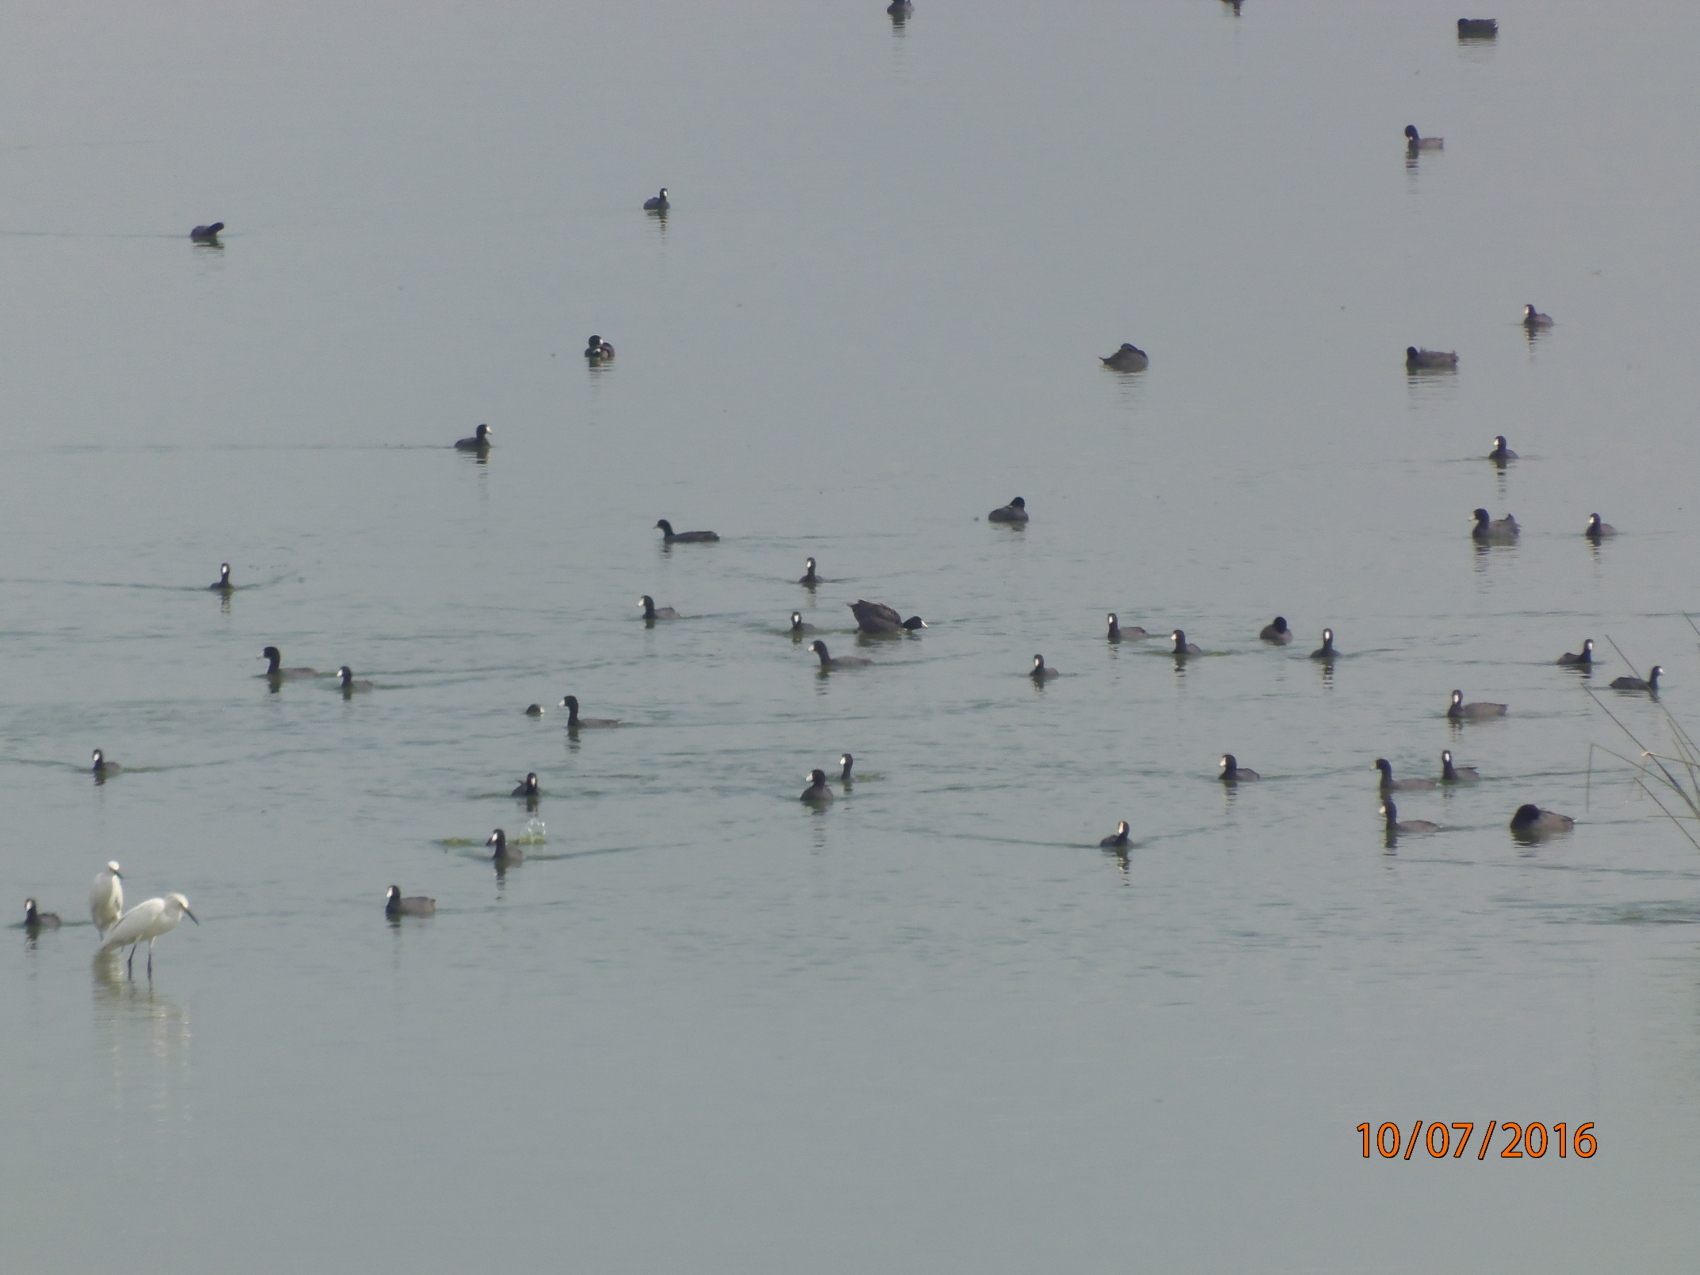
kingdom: Animalia
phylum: Chordata
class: Aves
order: Gruiformes
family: Rallidae
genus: Fulica
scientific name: Fulica americana
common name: American coot
